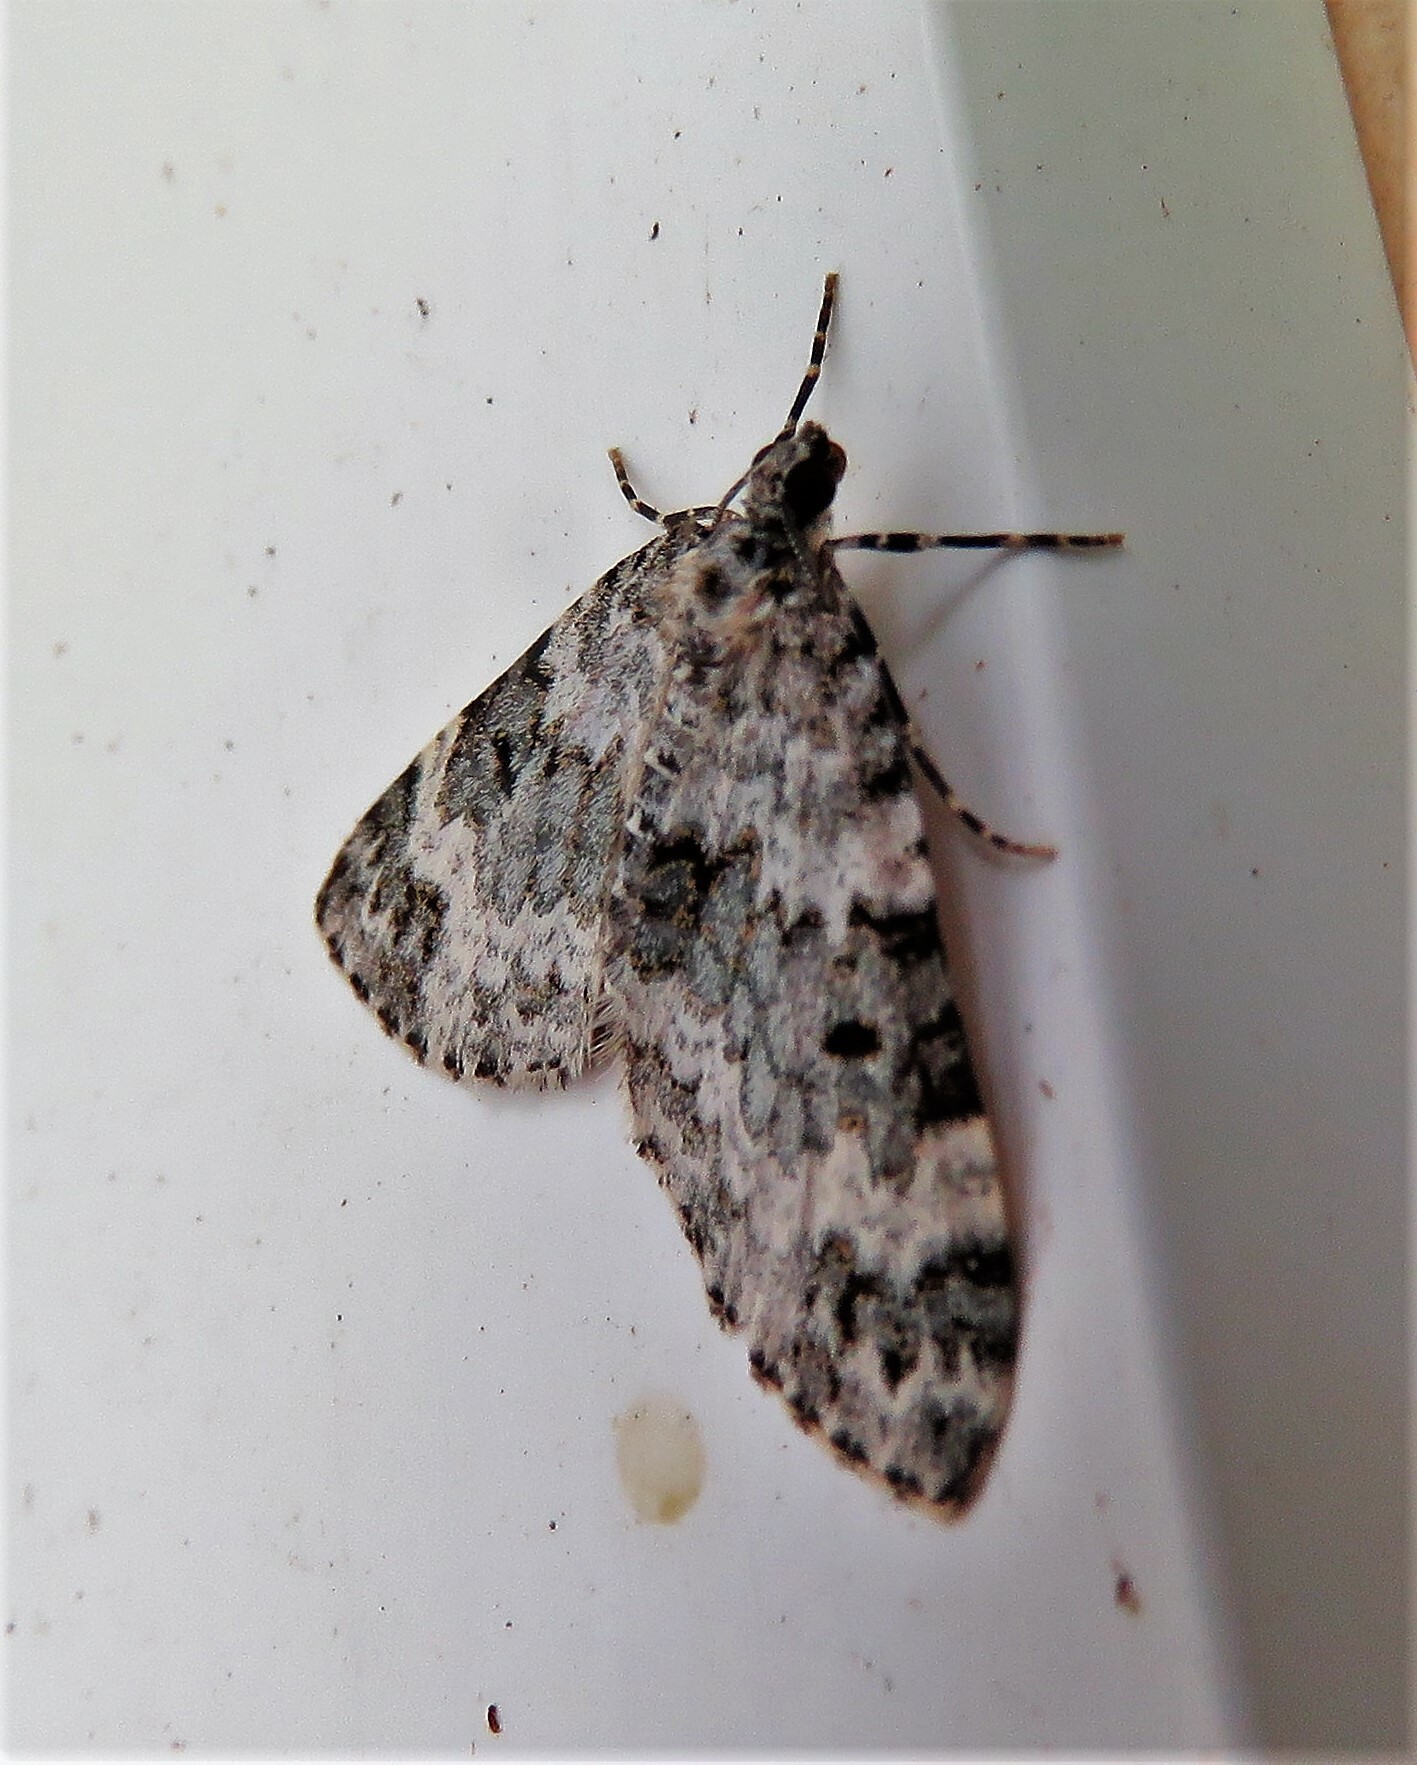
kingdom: Animalia
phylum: Arthropoda
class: Insecta
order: Lepidoptera
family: Geometridae
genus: Spargania
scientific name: Spargania magnoliata
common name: Double-banded carpet
